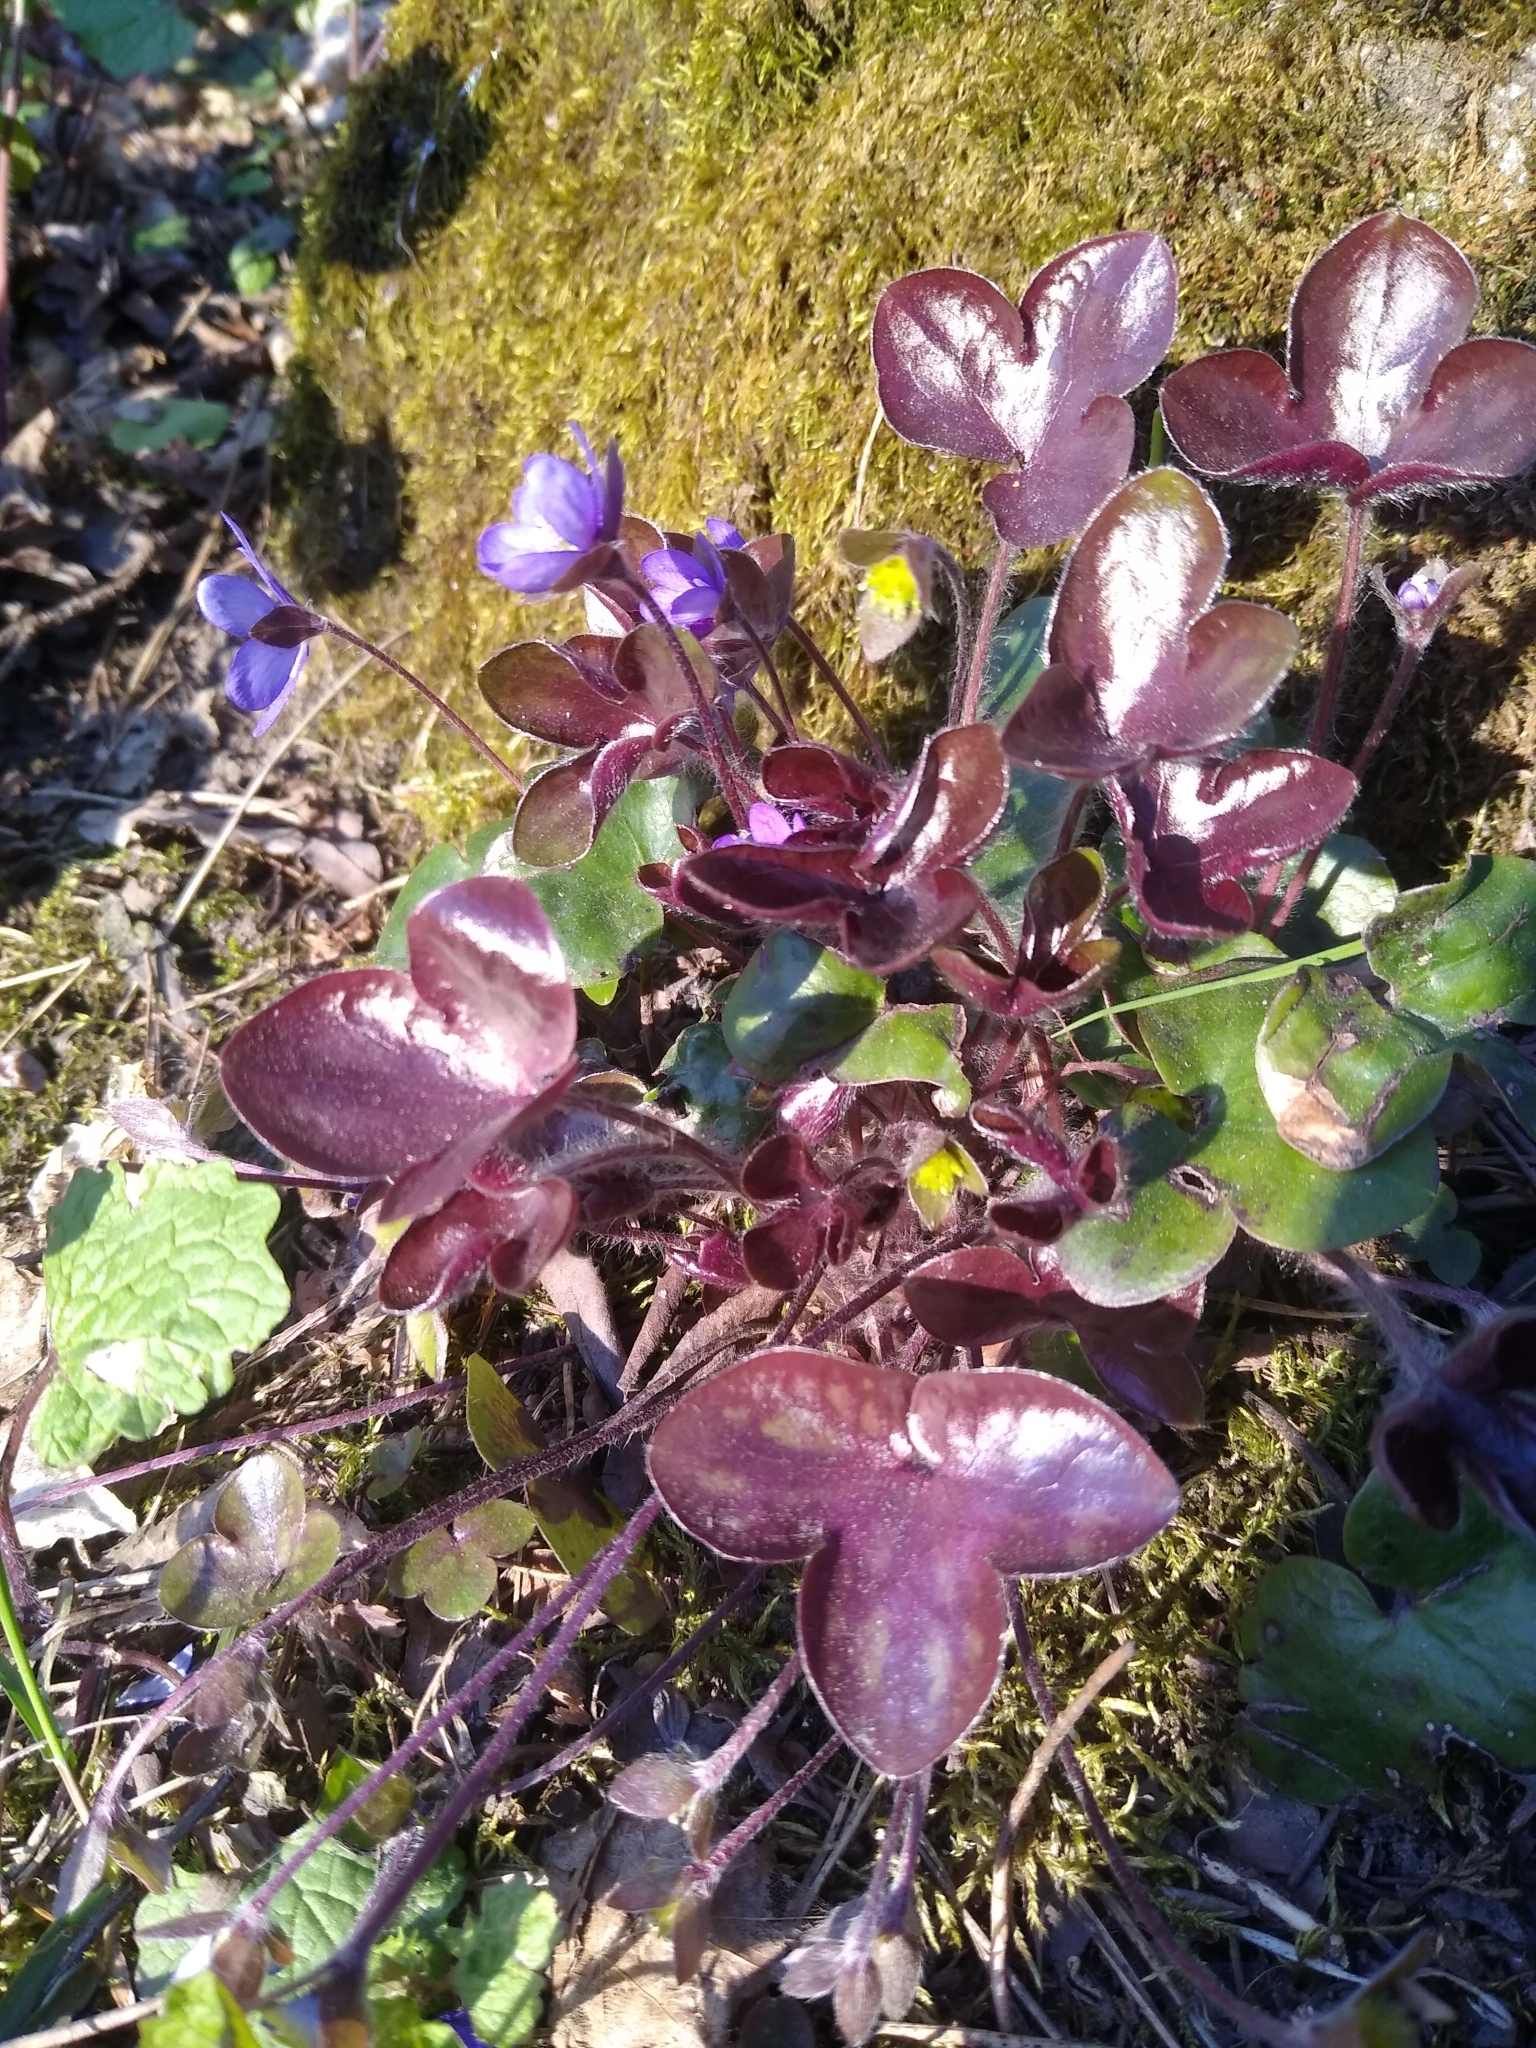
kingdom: Plantae
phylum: Tracheophyta
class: Magnoliopsida
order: Ranunculales
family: Ranunculaceae
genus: Hepatica
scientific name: Hepatica nobilis
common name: Liverleaf
